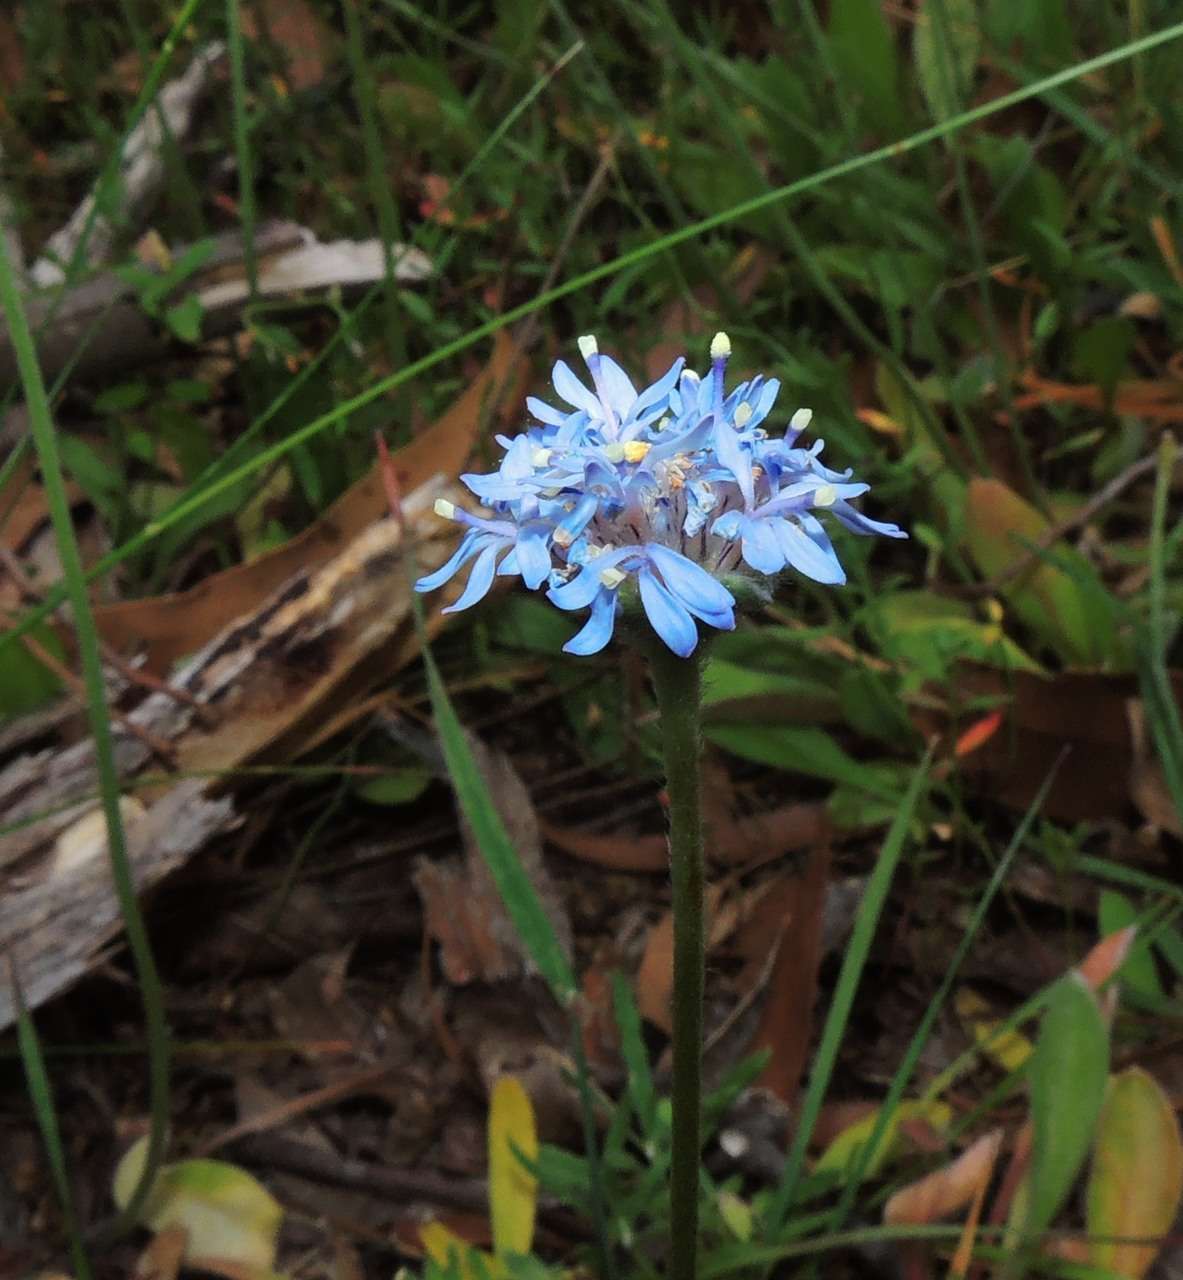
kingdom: Plantae
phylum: Tracheophyta
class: Magnoliopsida
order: Asterales
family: Goodeniaceae
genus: Brunonia
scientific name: Brunonia australis
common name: Blue pincushion
